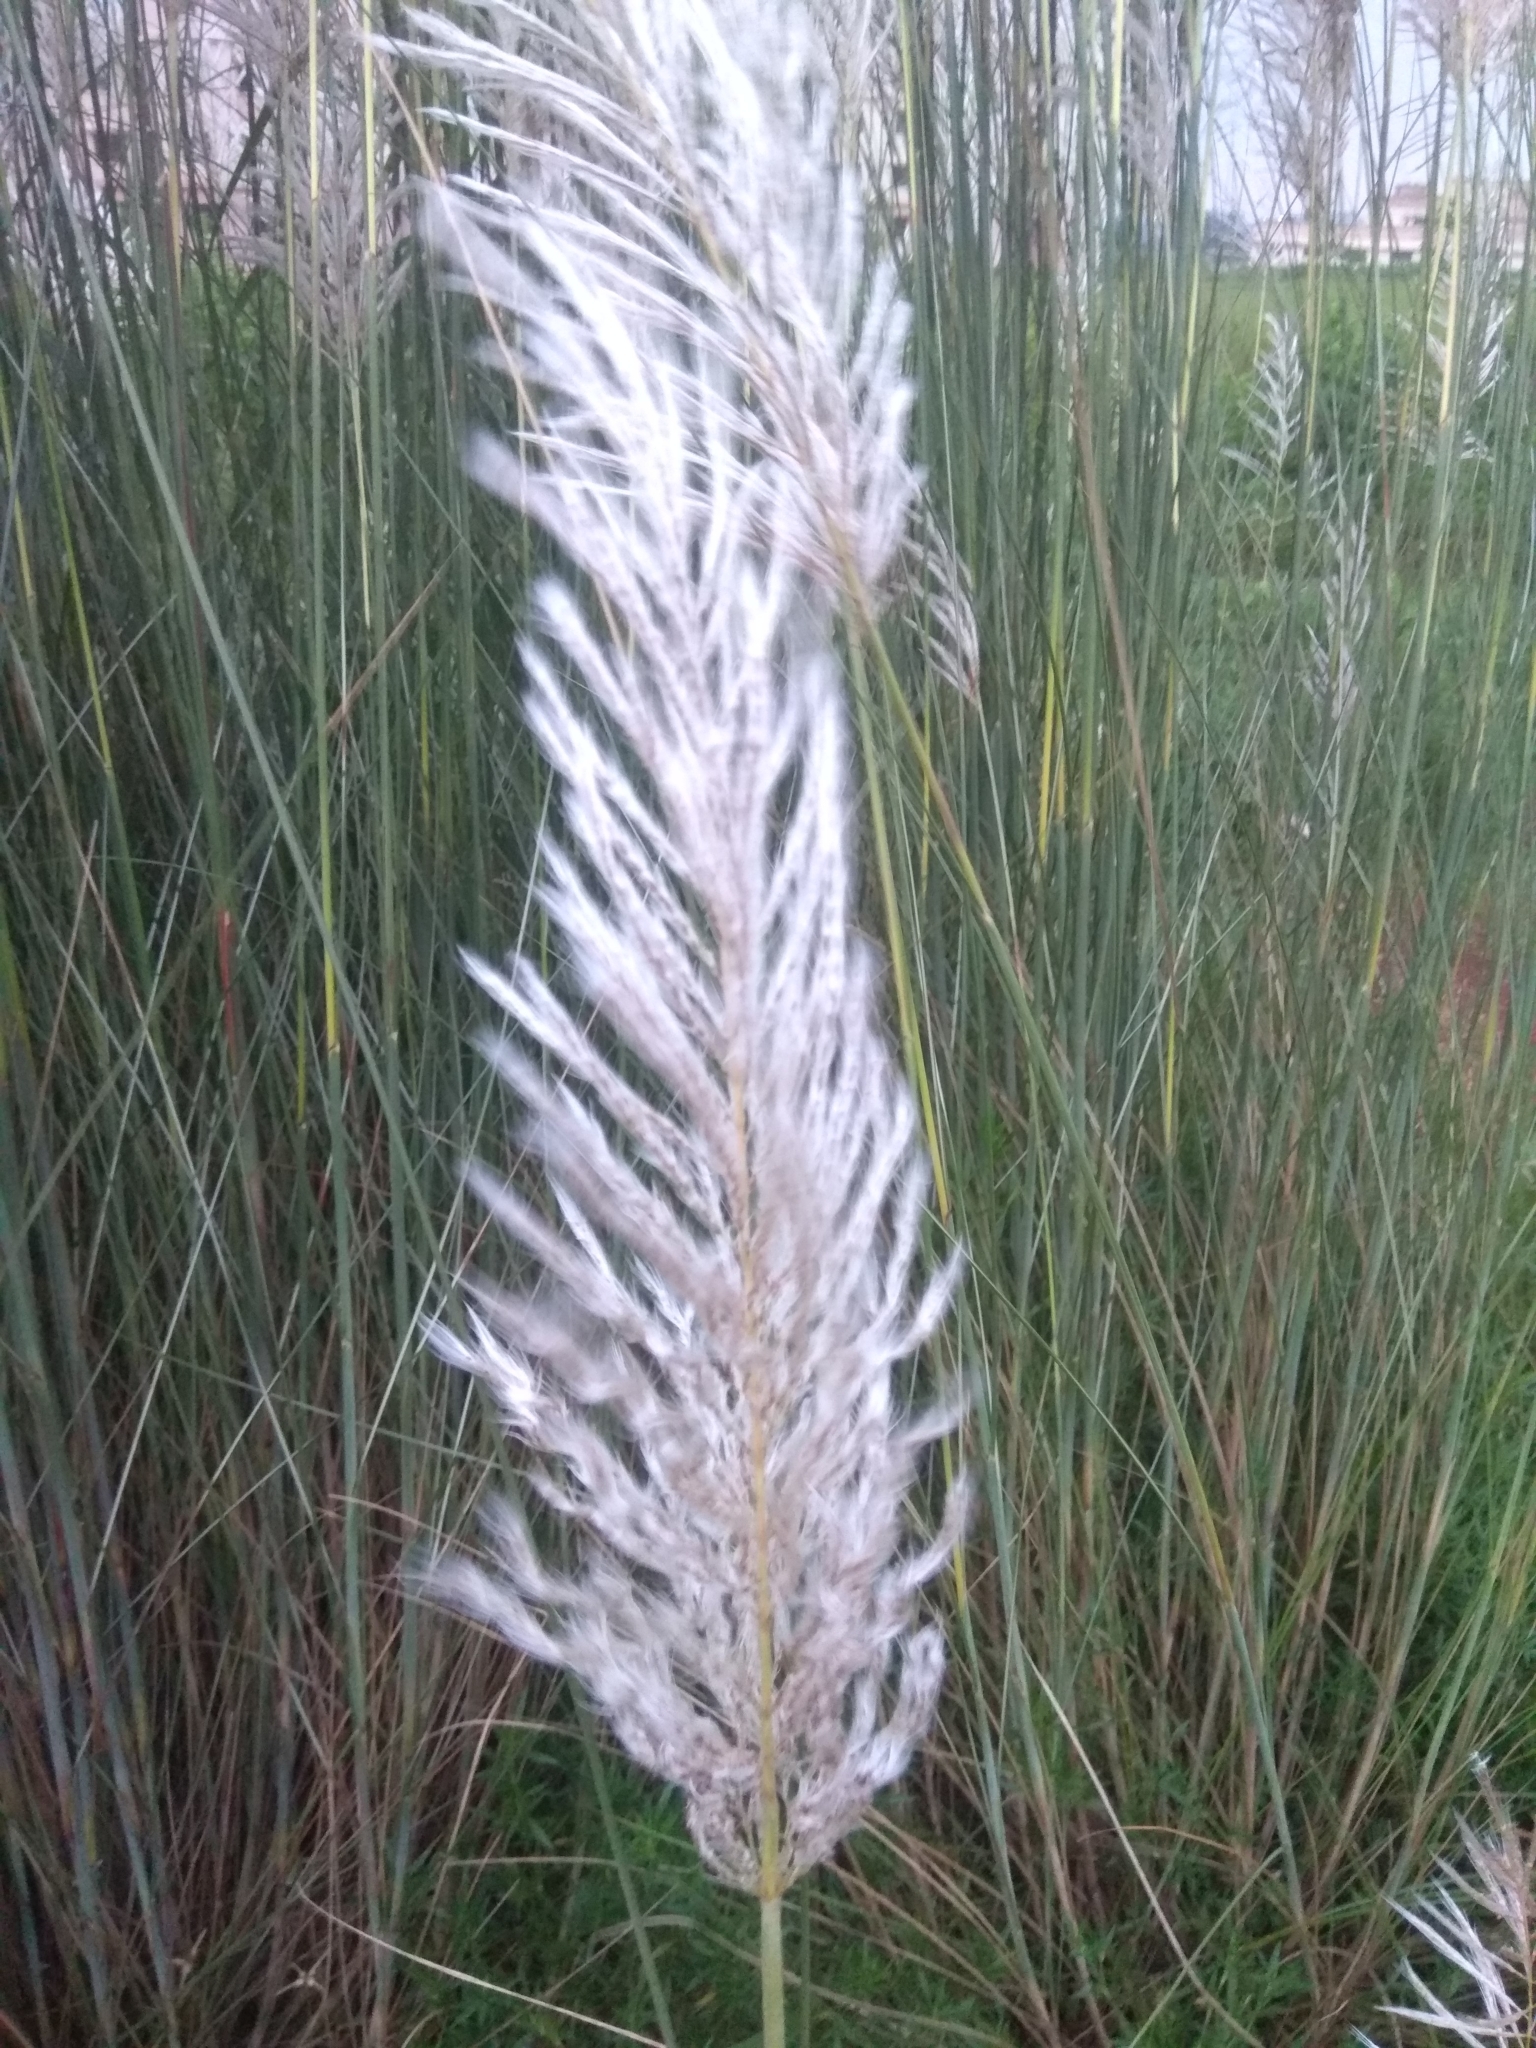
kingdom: Plantae
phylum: Tracheophyta
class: Liliopsida
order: Poales
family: Poaceae
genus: Saccharum
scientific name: Saccharum spontaneum
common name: Wild sugarcane
